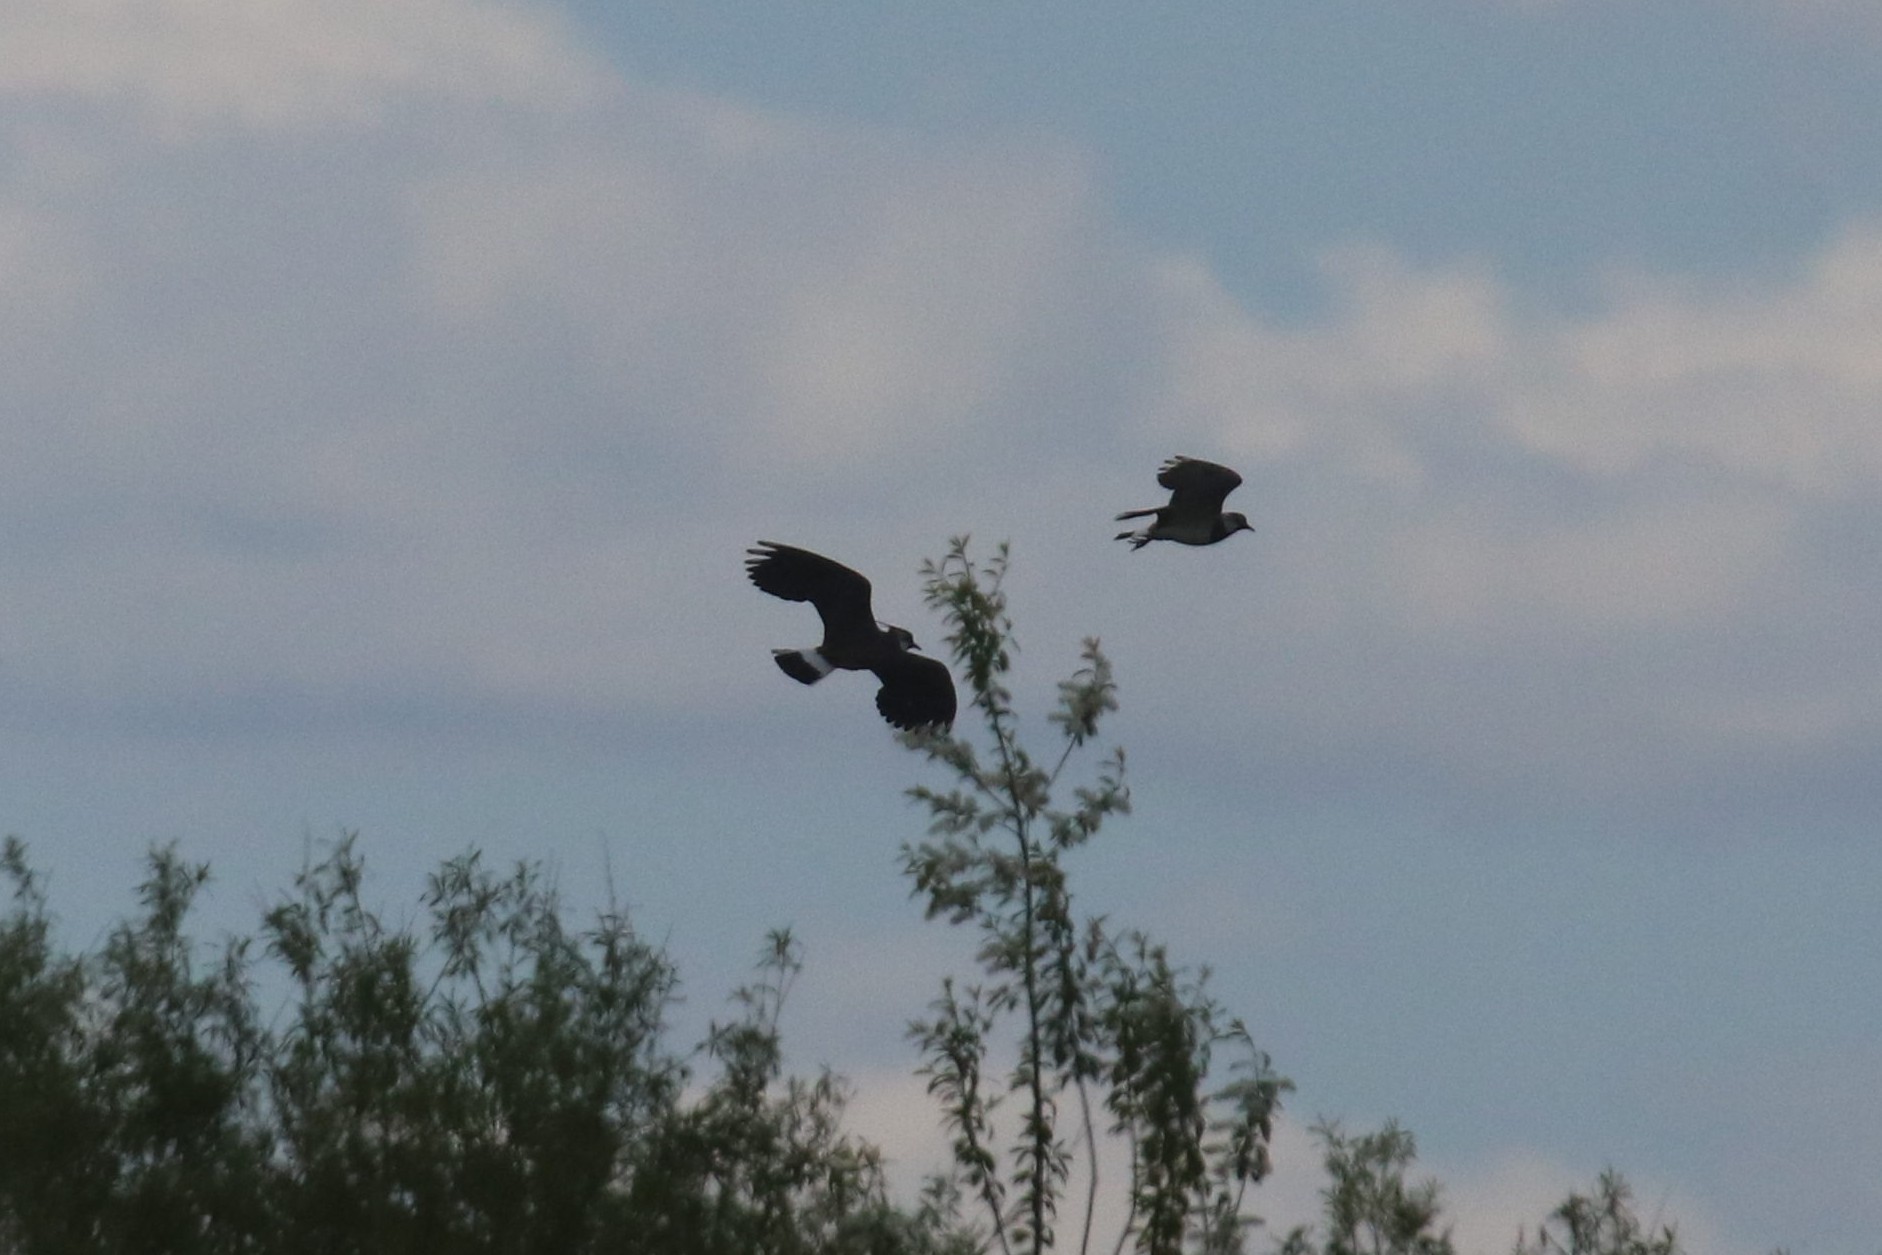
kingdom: Animalia
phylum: Chordata
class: Aves
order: Charadriiformes
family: Charadriidae
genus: Vanellus
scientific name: Vanellus vanellus
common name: Northern lapwing
